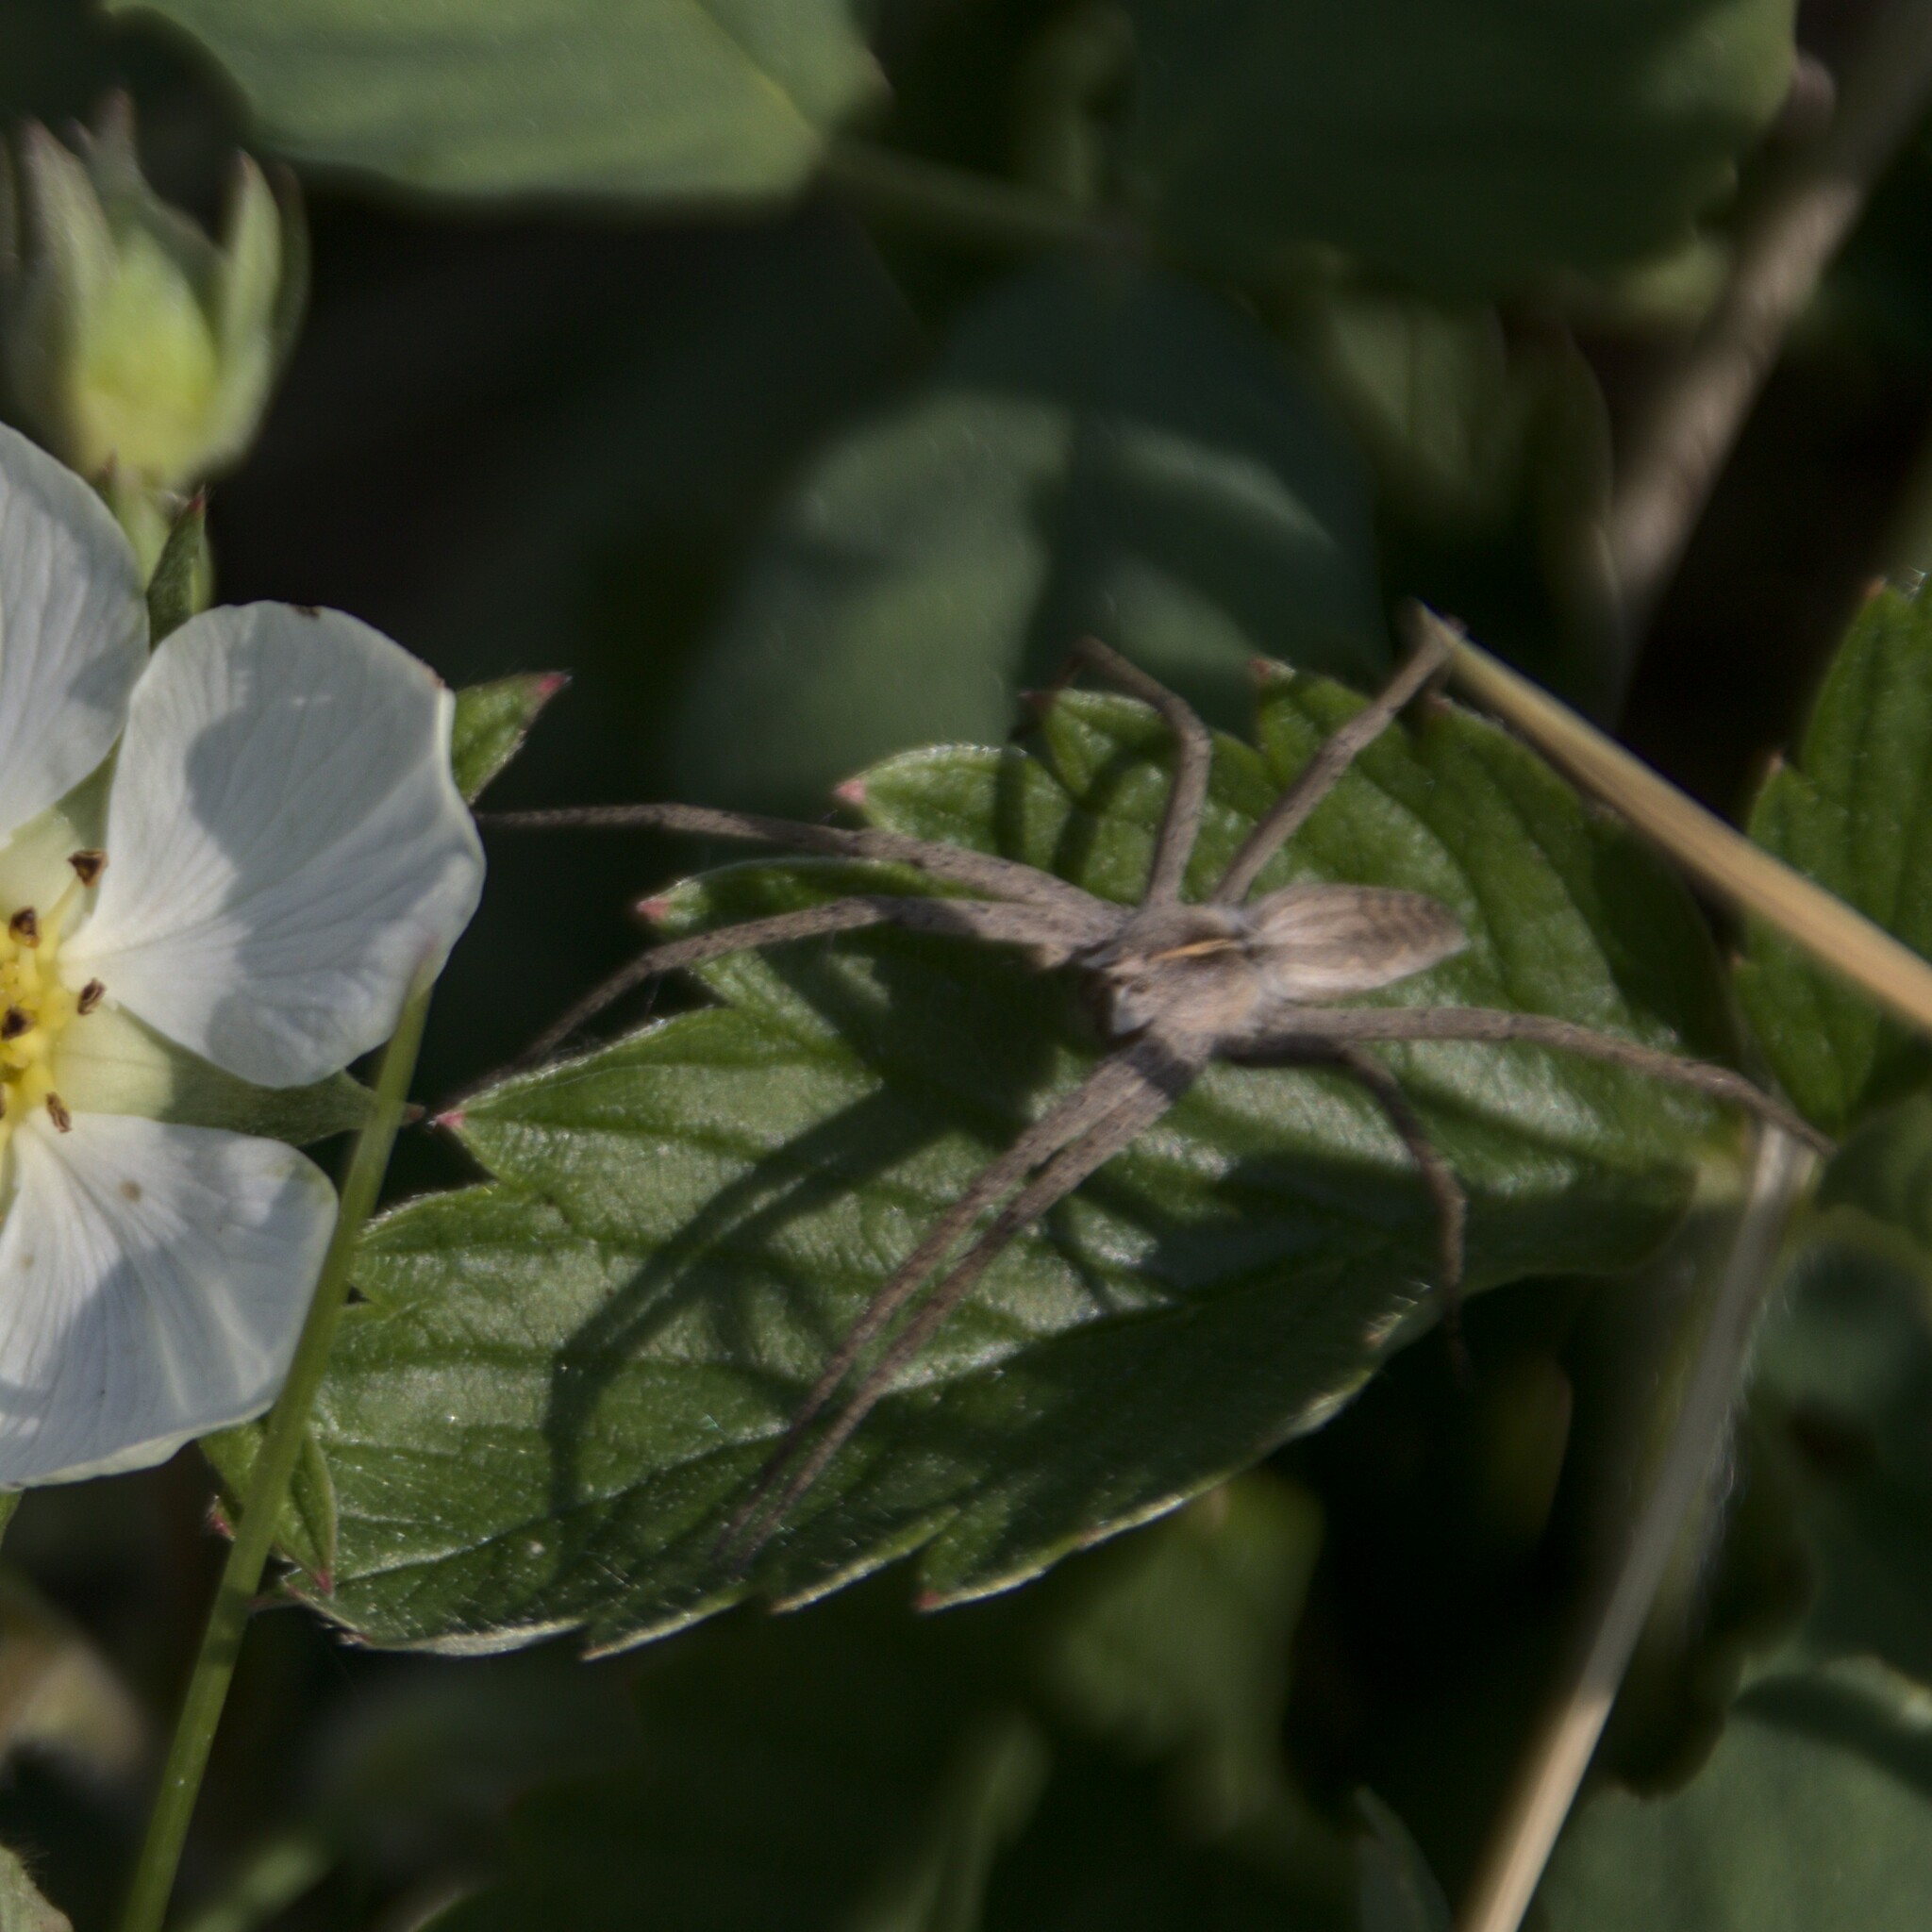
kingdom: Animalia
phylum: Arthropoda
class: Arachnida
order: Araneae
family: Pisauridae
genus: Pisaura
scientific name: Pisaura mirabilis
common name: Tent spider
